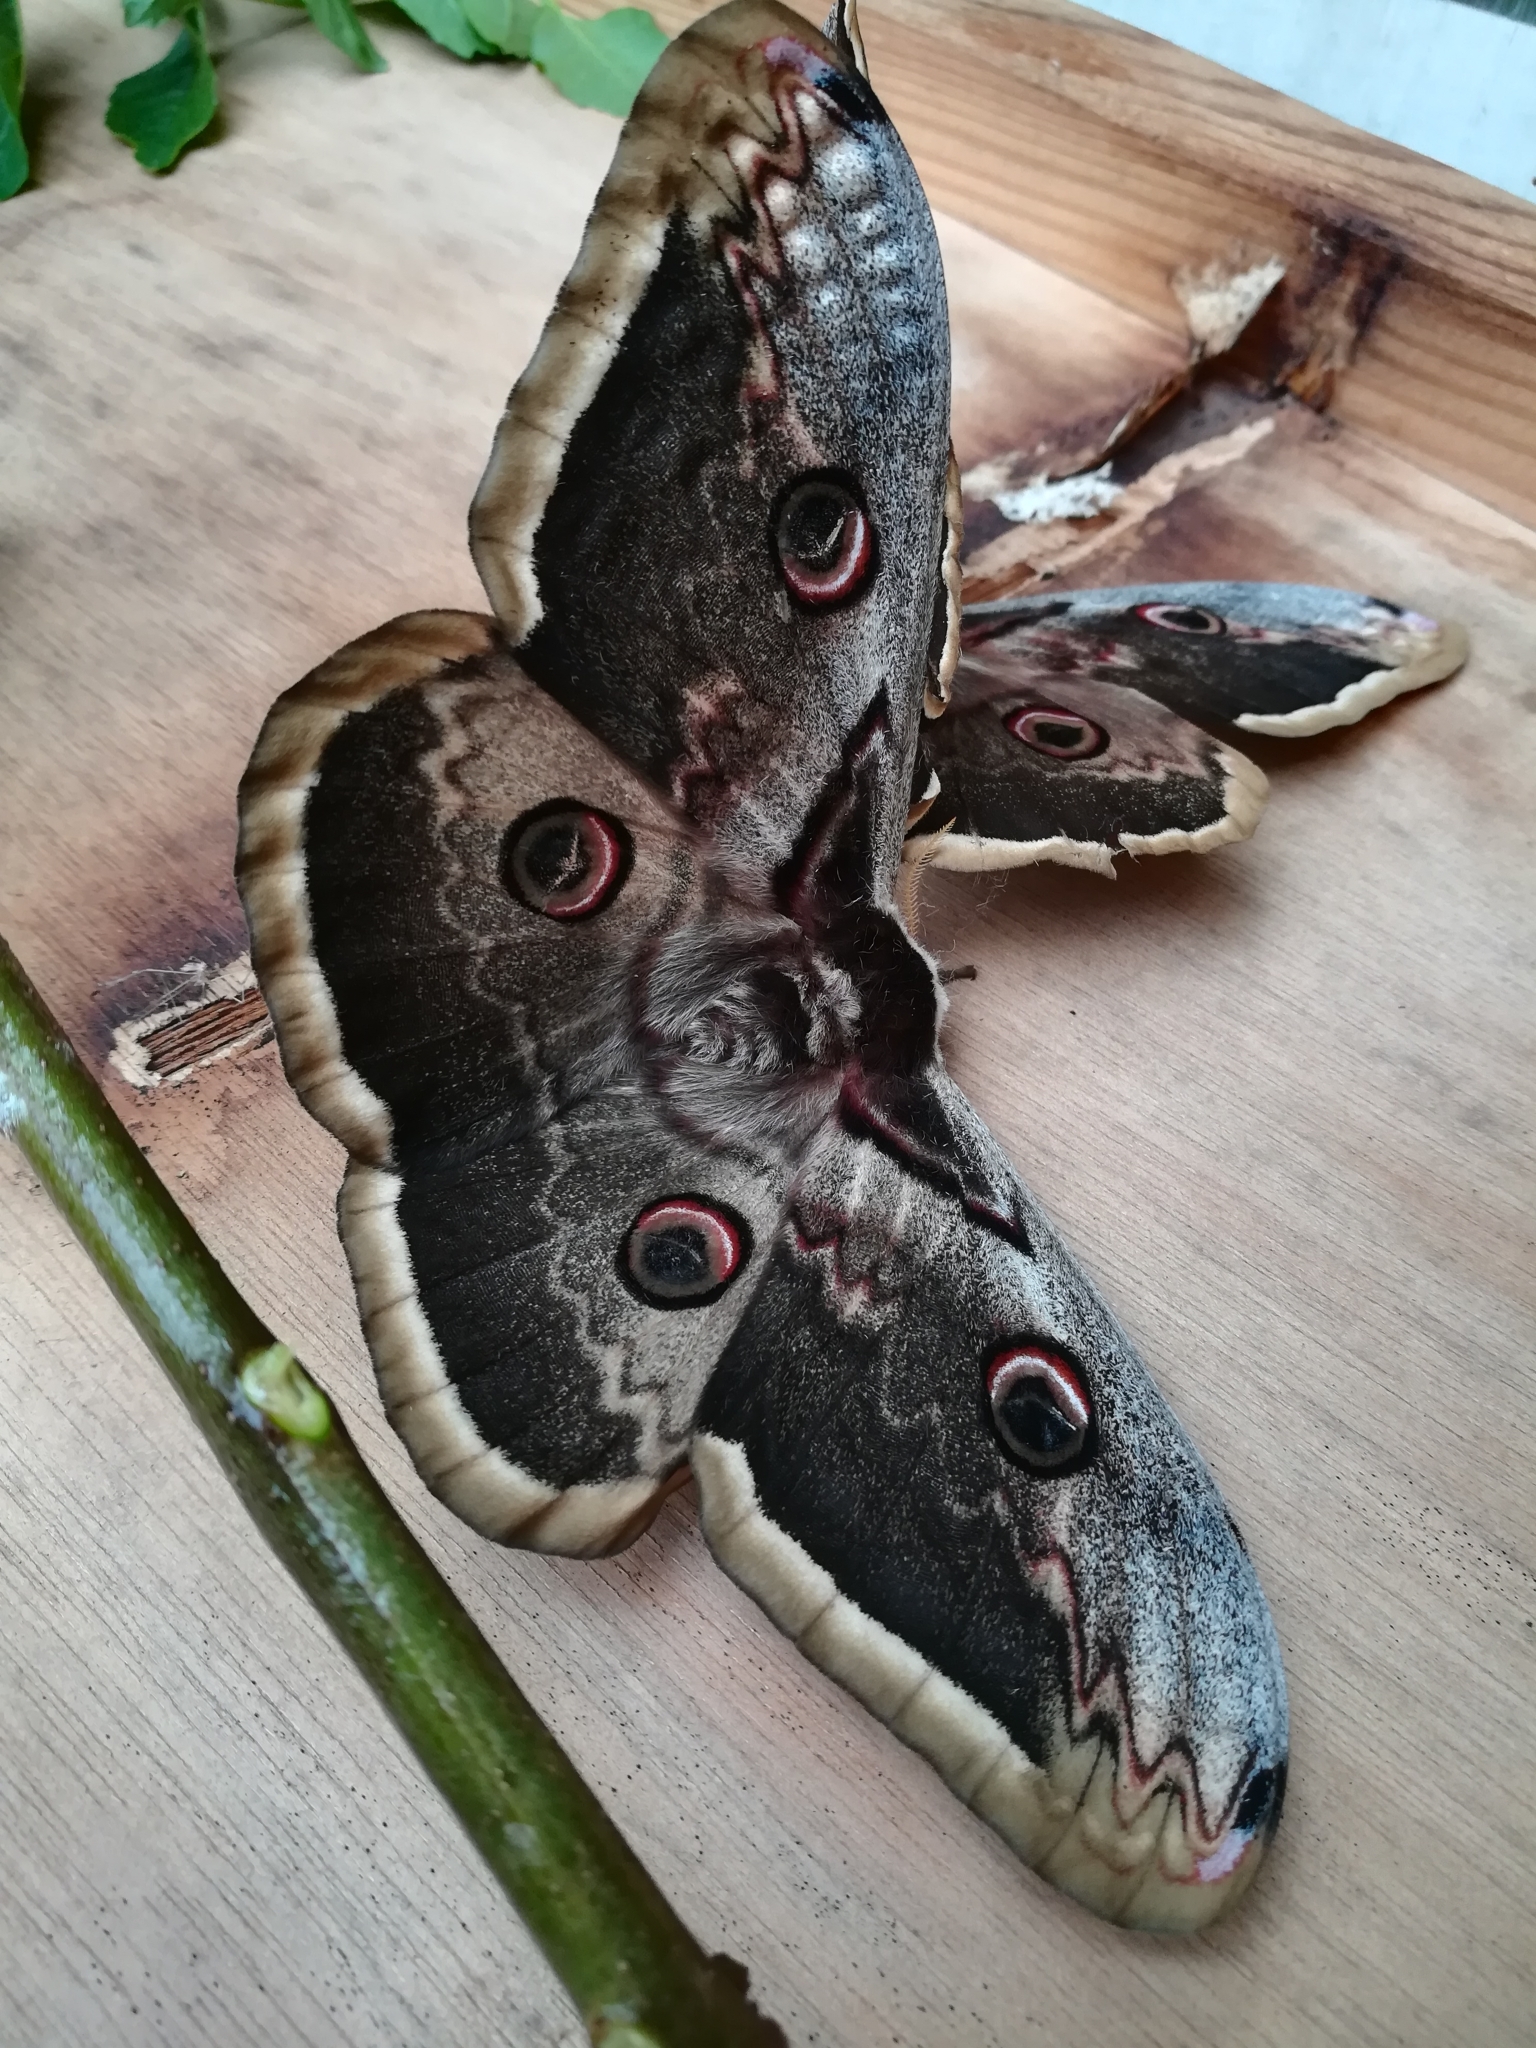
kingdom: Animalia
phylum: Arthropoda
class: Insecta
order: Lepidoptera
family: Saturniidae
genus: Saturnia
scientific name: Saturnia pyri
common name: Great peacock moth
